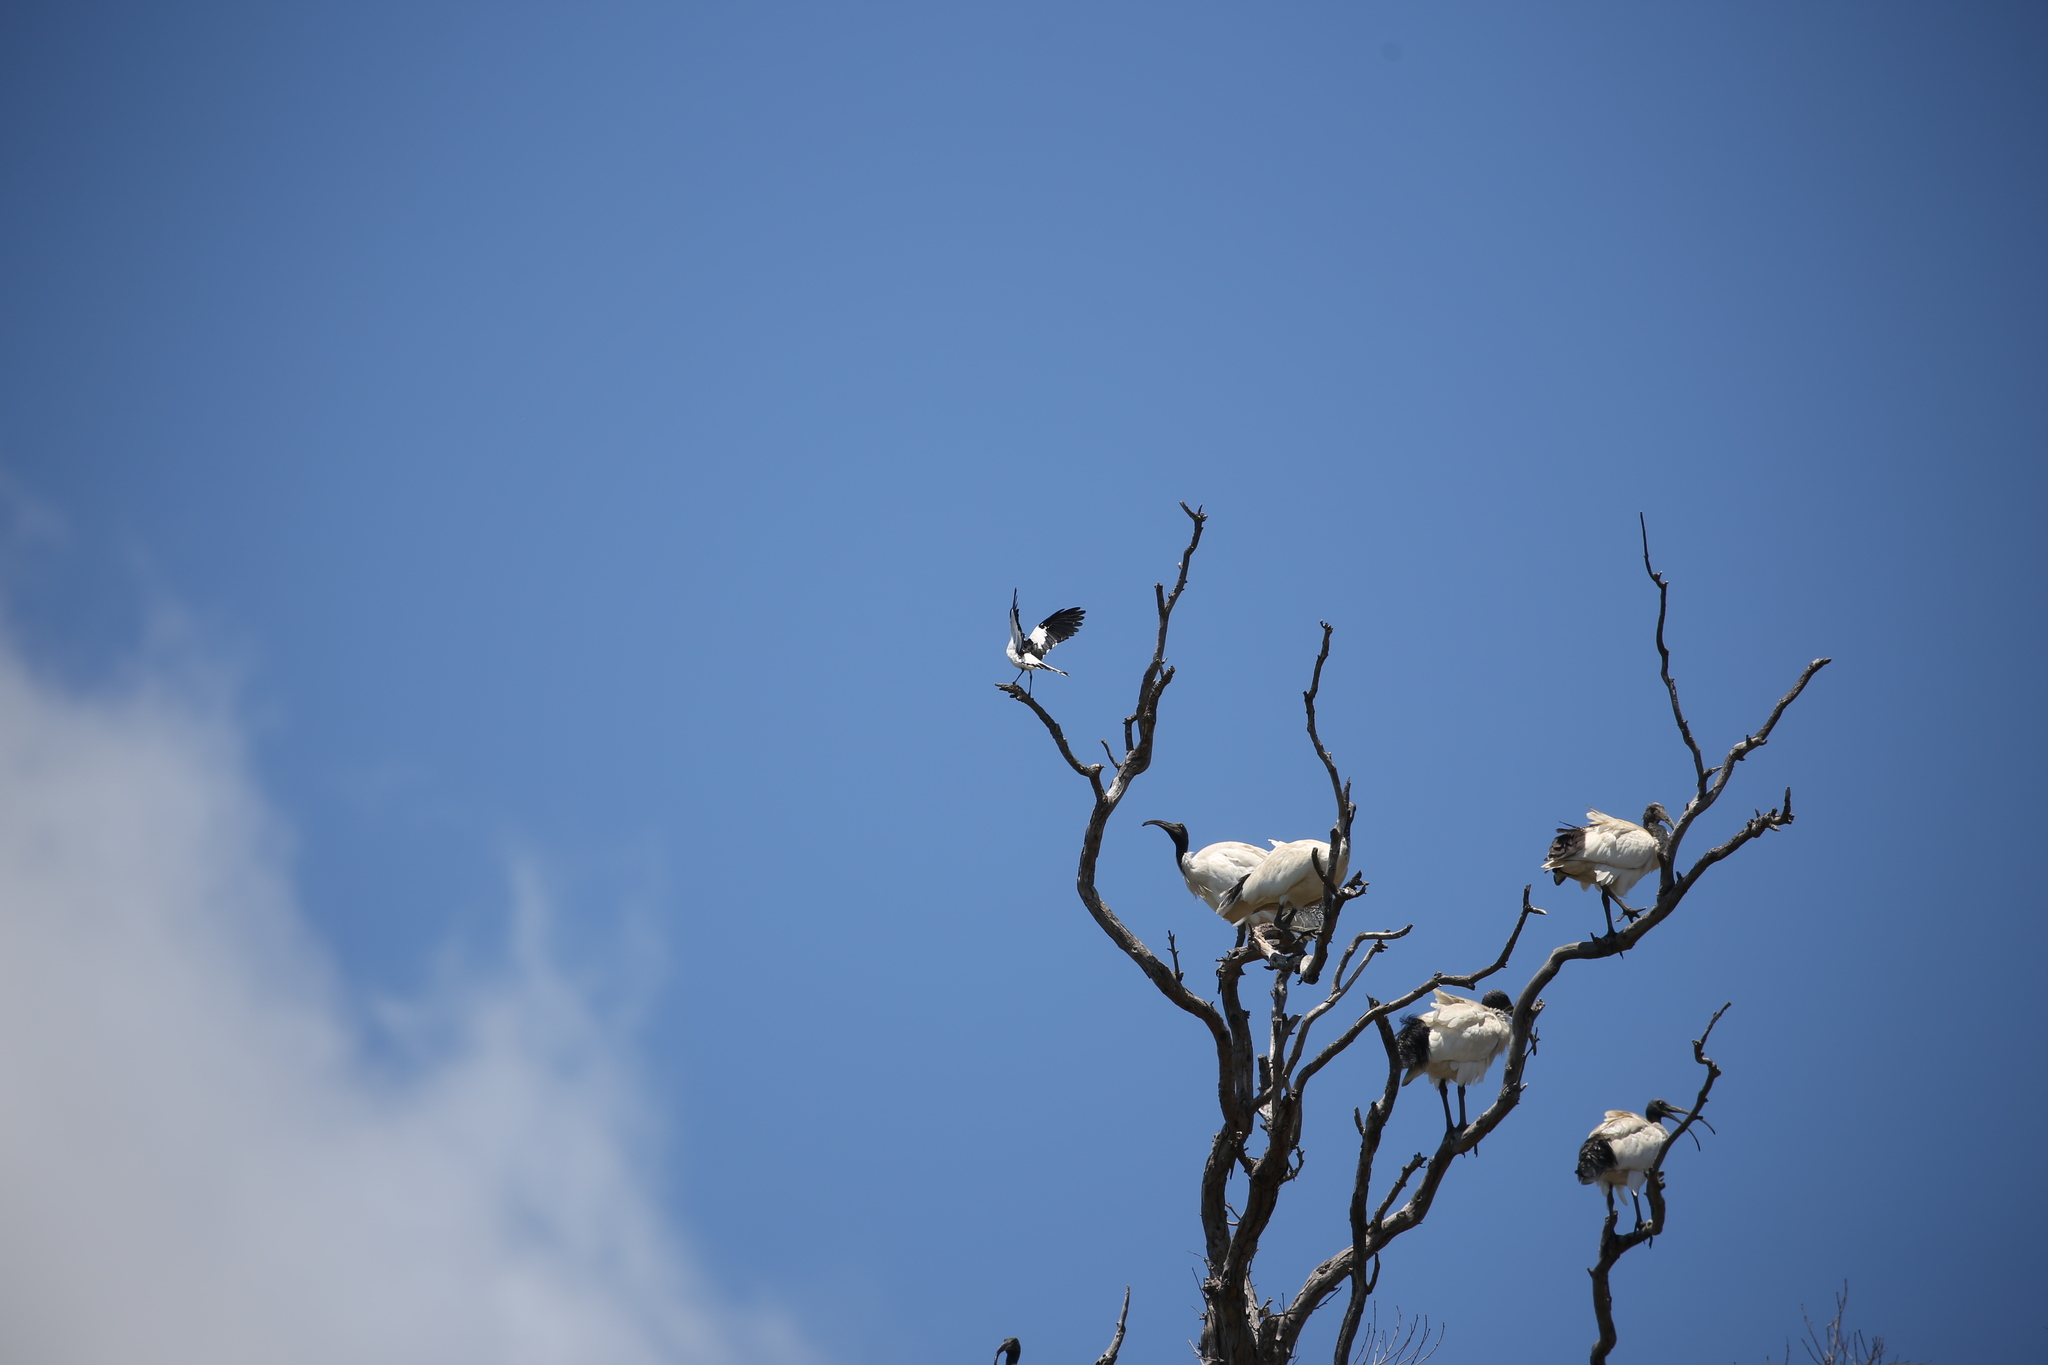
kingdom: Animalia
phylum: Chordata
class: Aves
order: Passeriformes
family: Monarchidae
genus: Grallina
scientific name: Grallina cyanoleuca
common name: Magpie-lark
